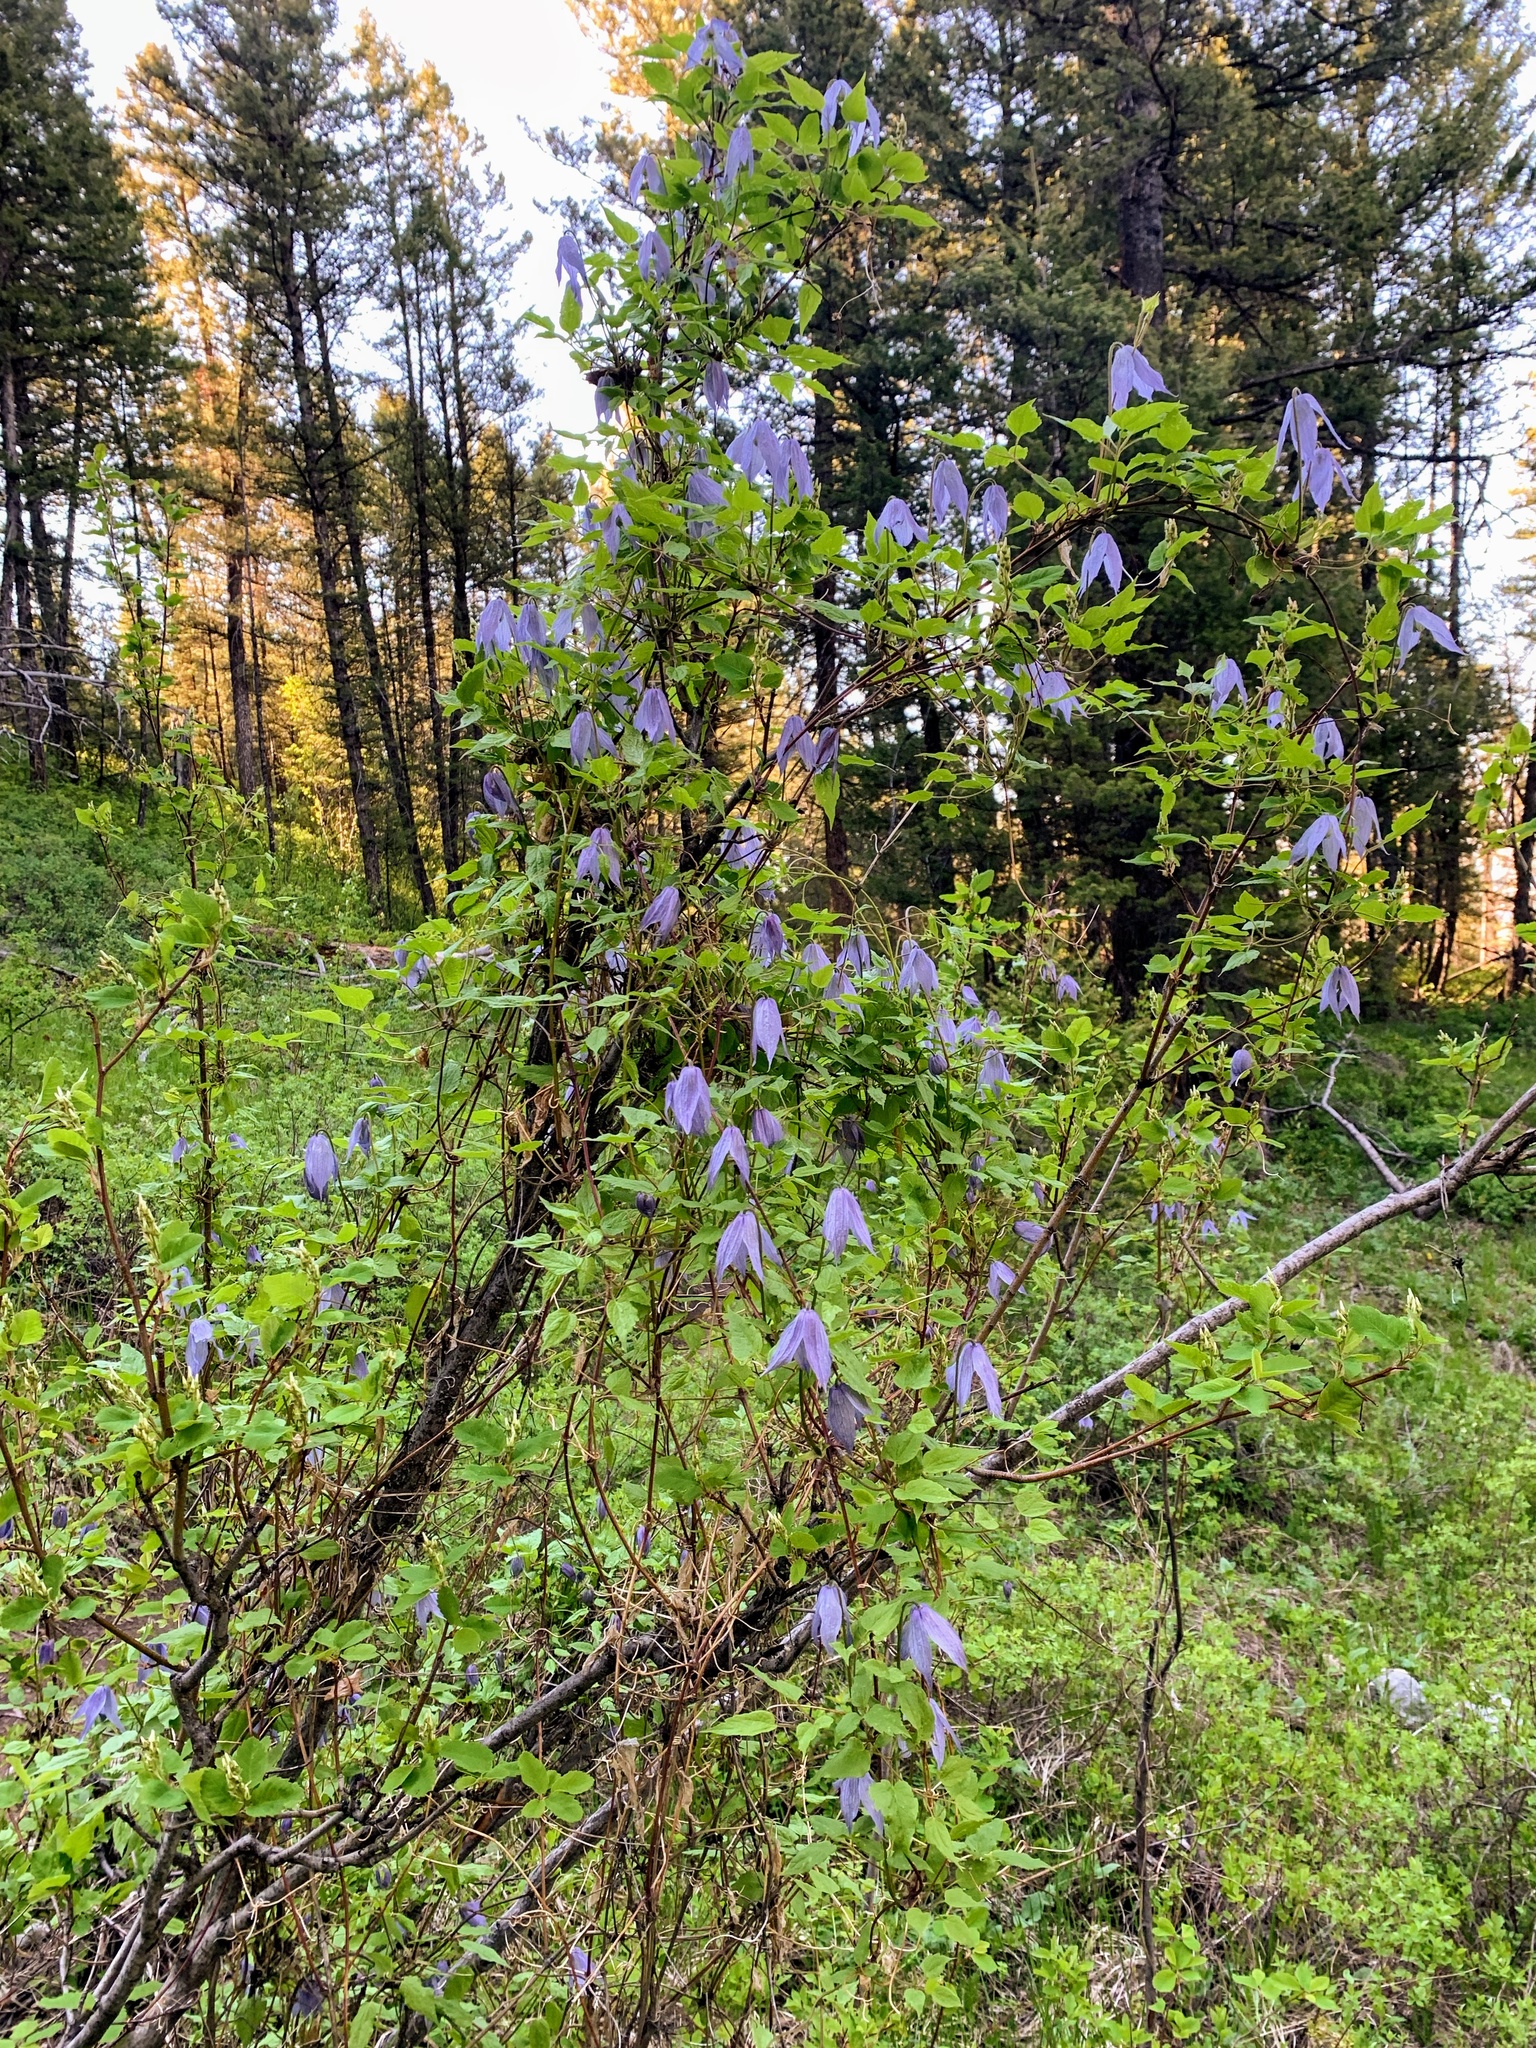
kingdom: Plantae
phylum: Tracheophyta
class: Magnoliopsida
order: Ranunculales
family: Ranunculaceae
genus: Clematis
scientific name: Clematis occidentalis
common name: Purple clematis
